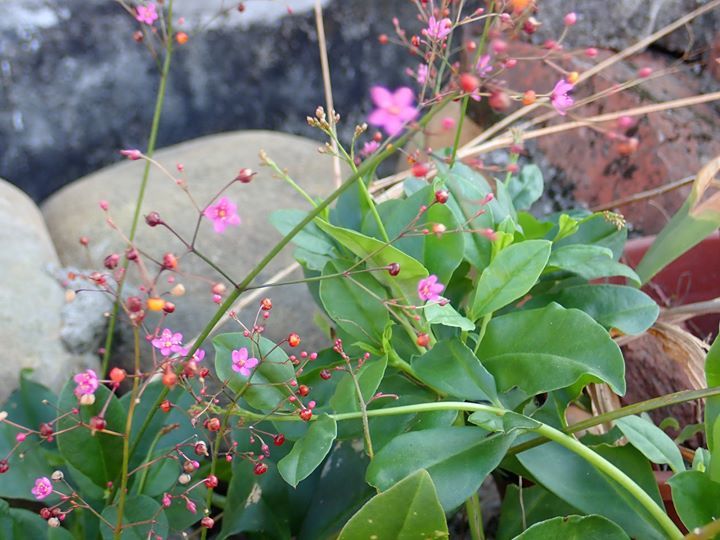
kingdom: Plantae
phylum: Tracheophyta
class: Magnoliopsida
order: Caryophyllales
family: Talinaceae
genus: Talinum
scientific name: Talinum paniculatum
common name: Jewels of opar
